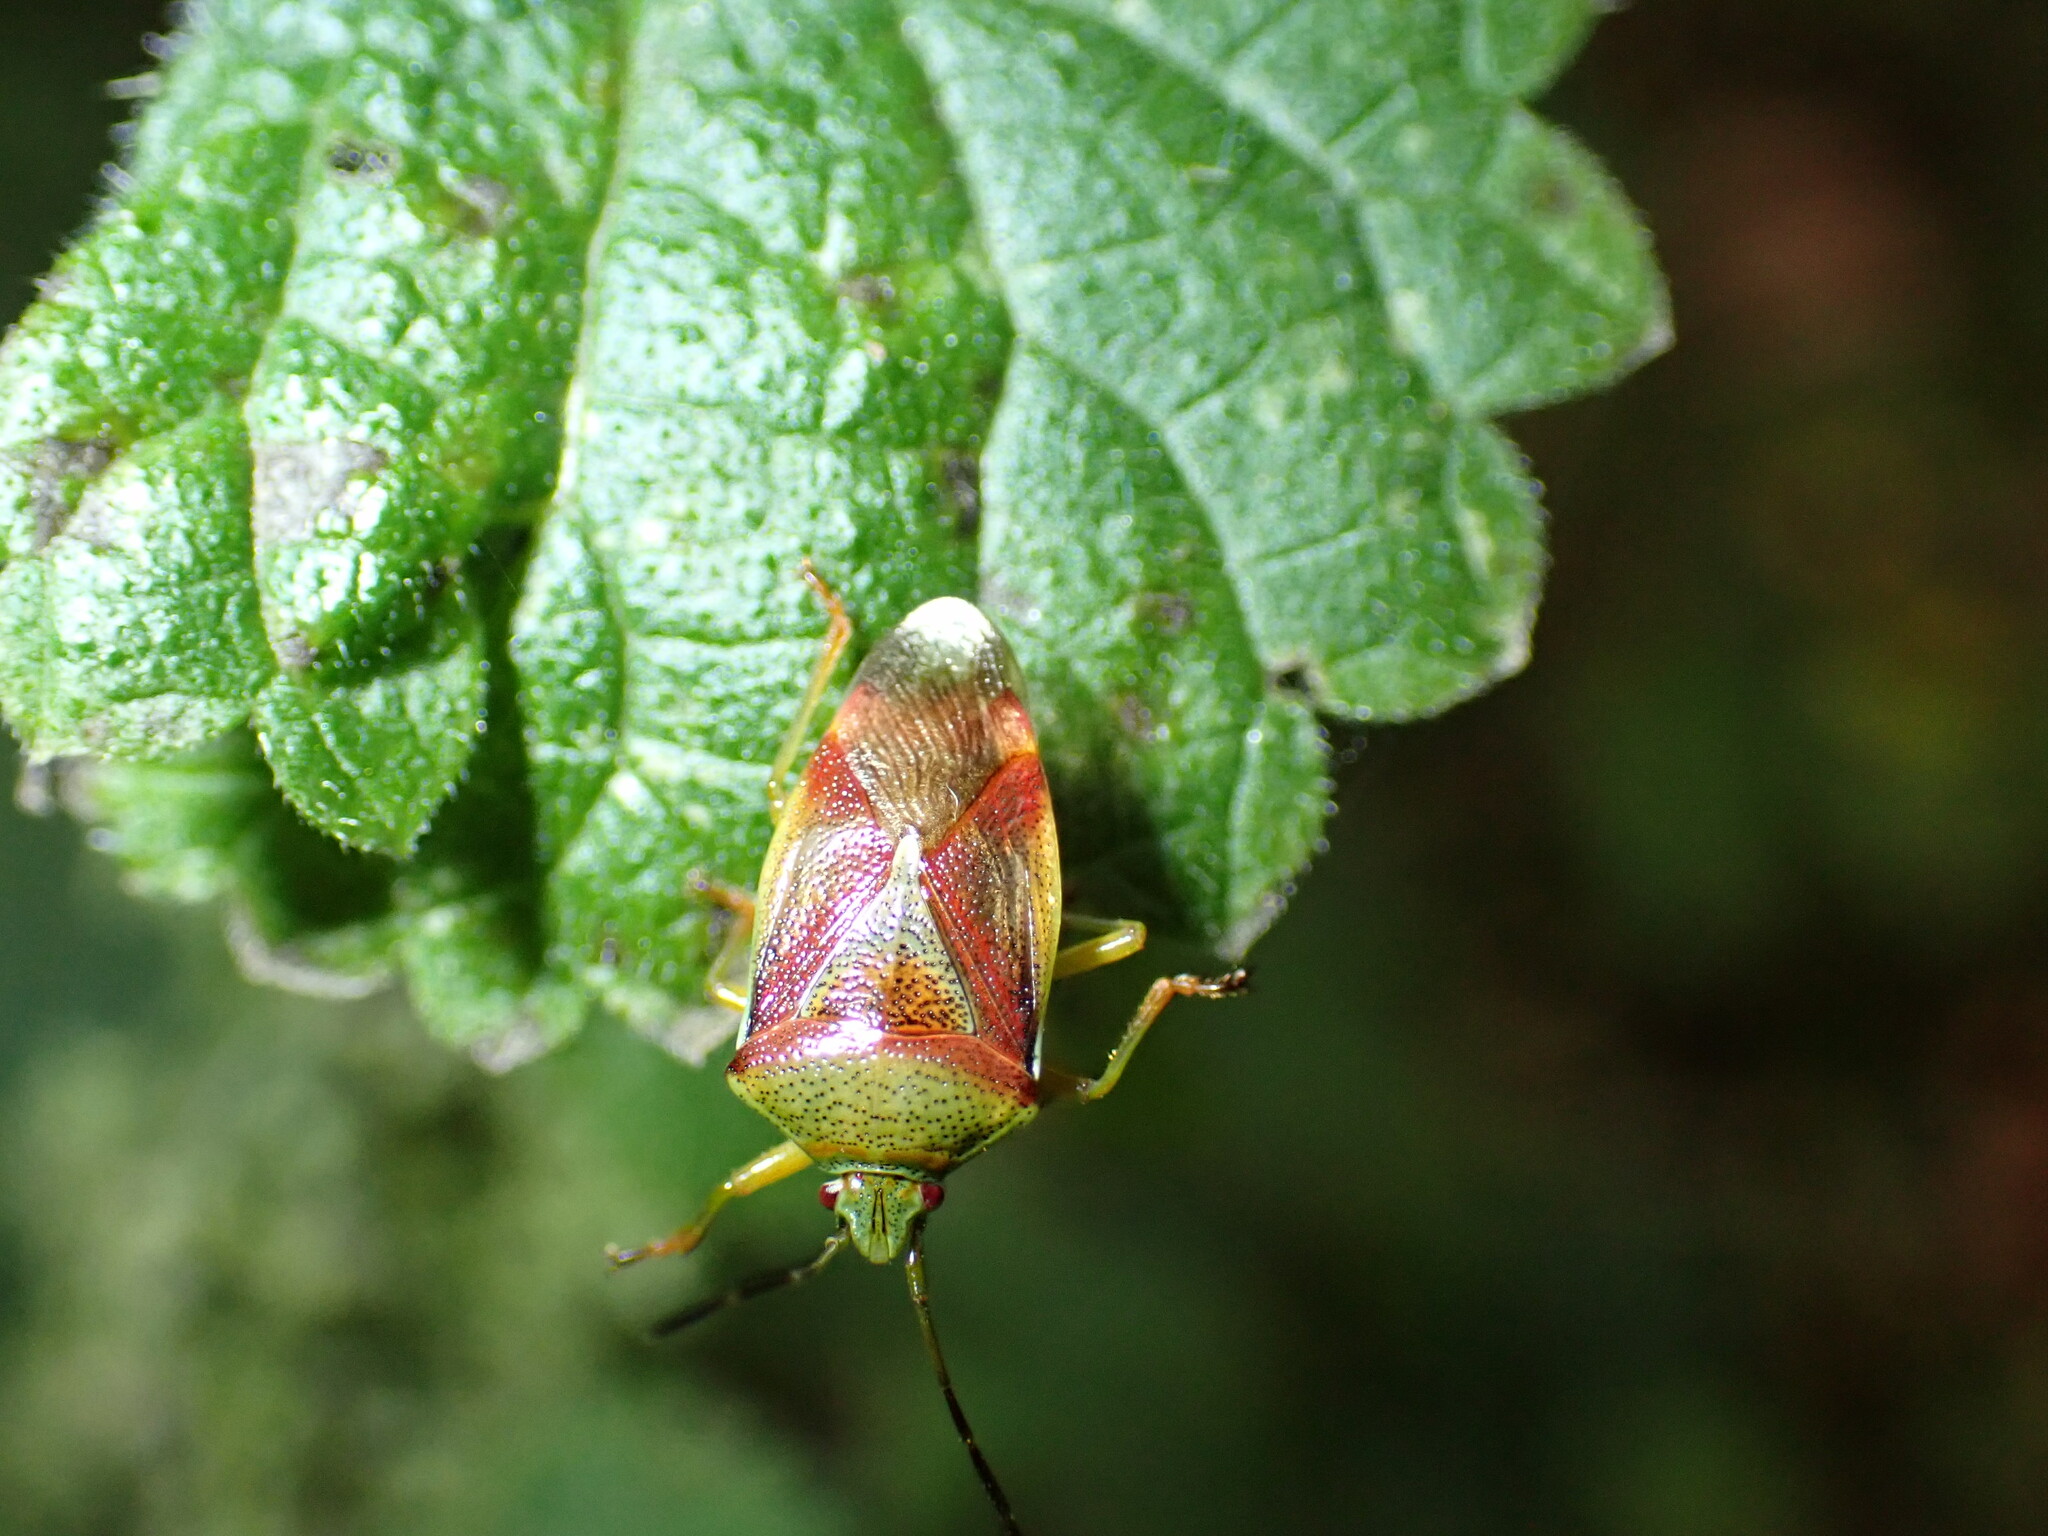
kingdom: Animalia
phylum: Arthropoda
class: Insecta
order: Hemiptera
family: Acanthosomatidae
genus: Elasmostethus
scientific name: Elasmostethus interstinctus
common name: Birch shieldbug
